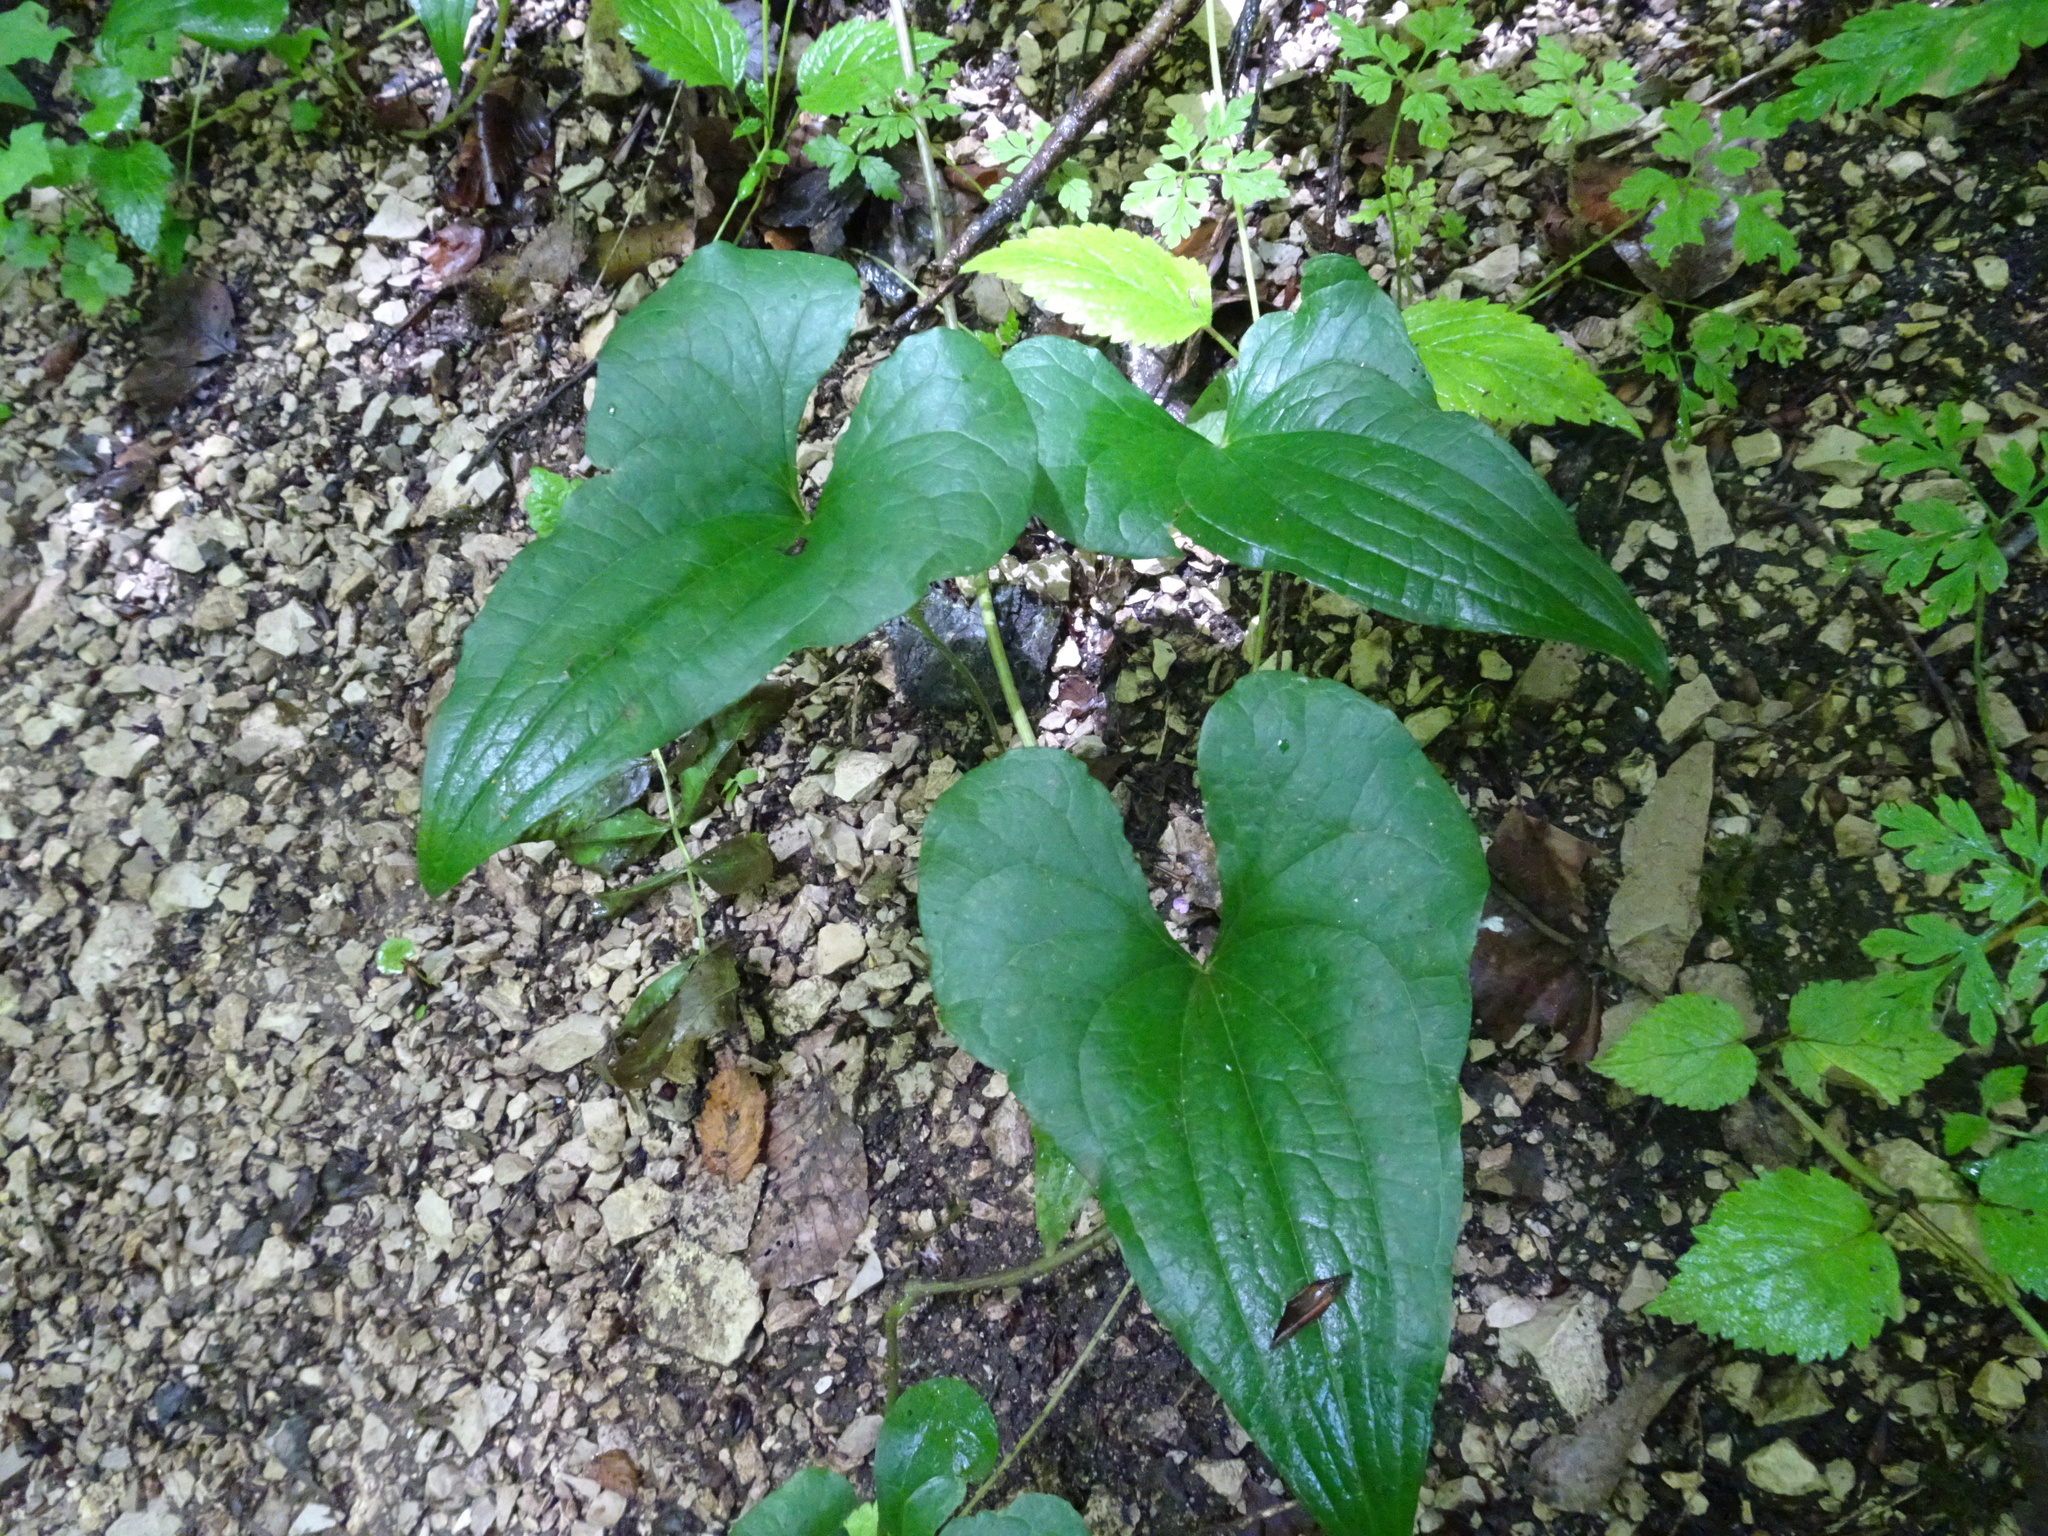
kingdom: Plantae
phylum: Tracheophyta
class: Liliopsida
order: Dioscoreales
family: Dioscoreaceae
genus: Dioscorea
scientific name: Dioscorea communis
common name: Black-bindweed
